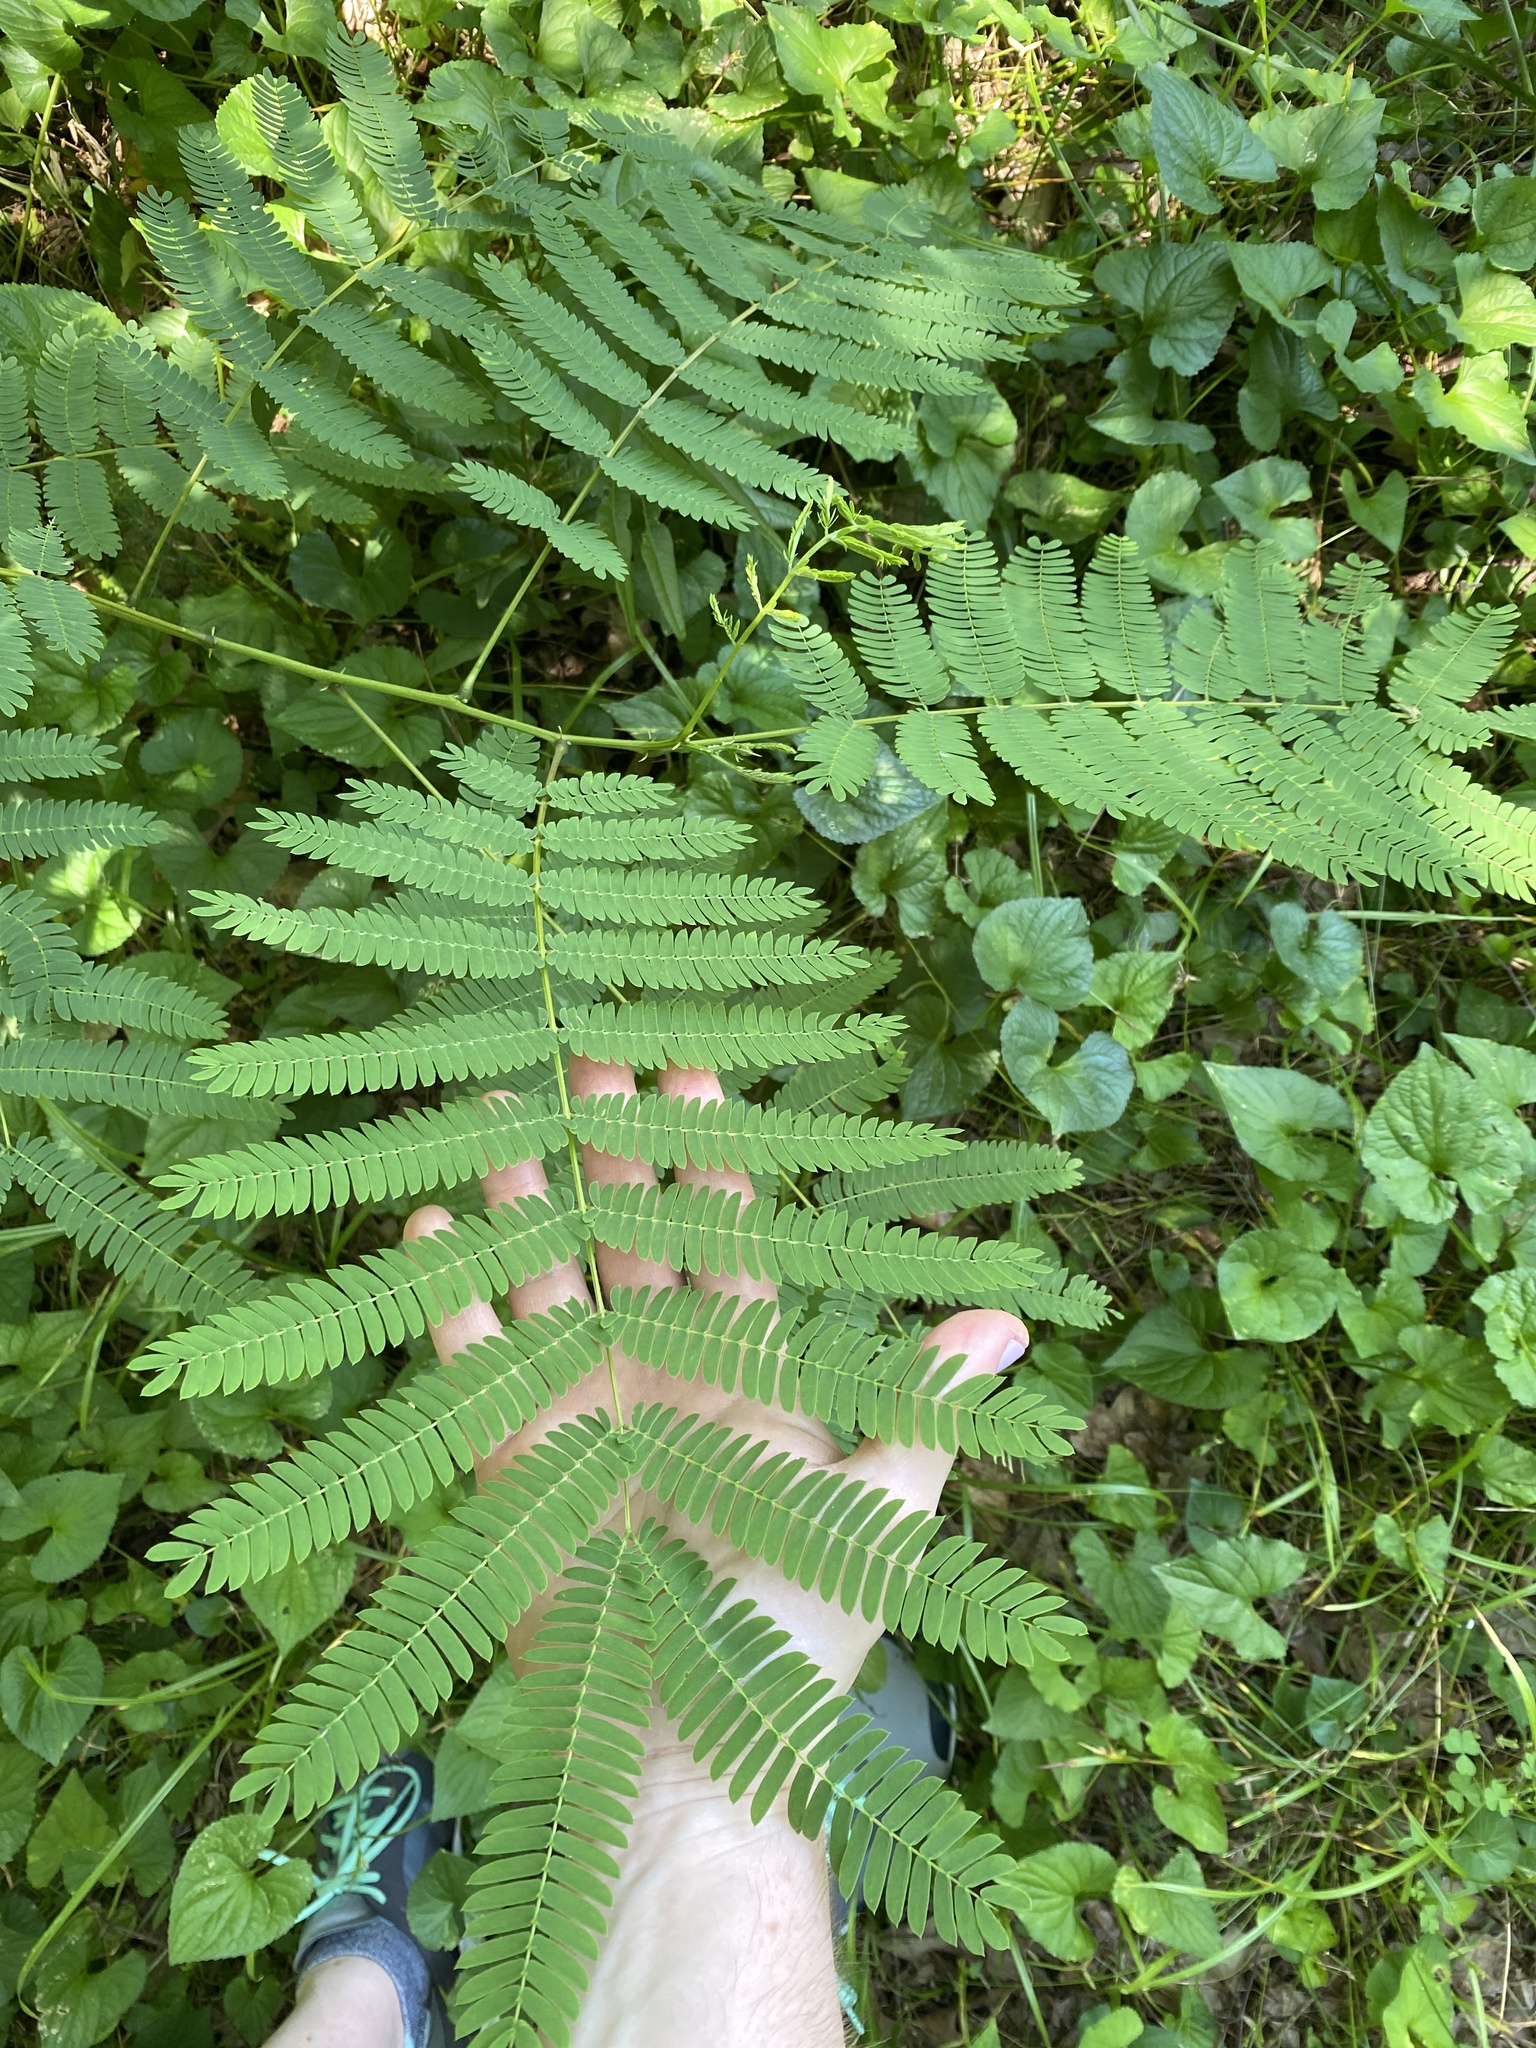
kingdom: Plantae
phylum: Tracheophyta
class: Magnoliopsida
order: Fabales
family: Fabaceae
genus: Albizia
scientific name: Albizia julibrissin
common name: Silktree
